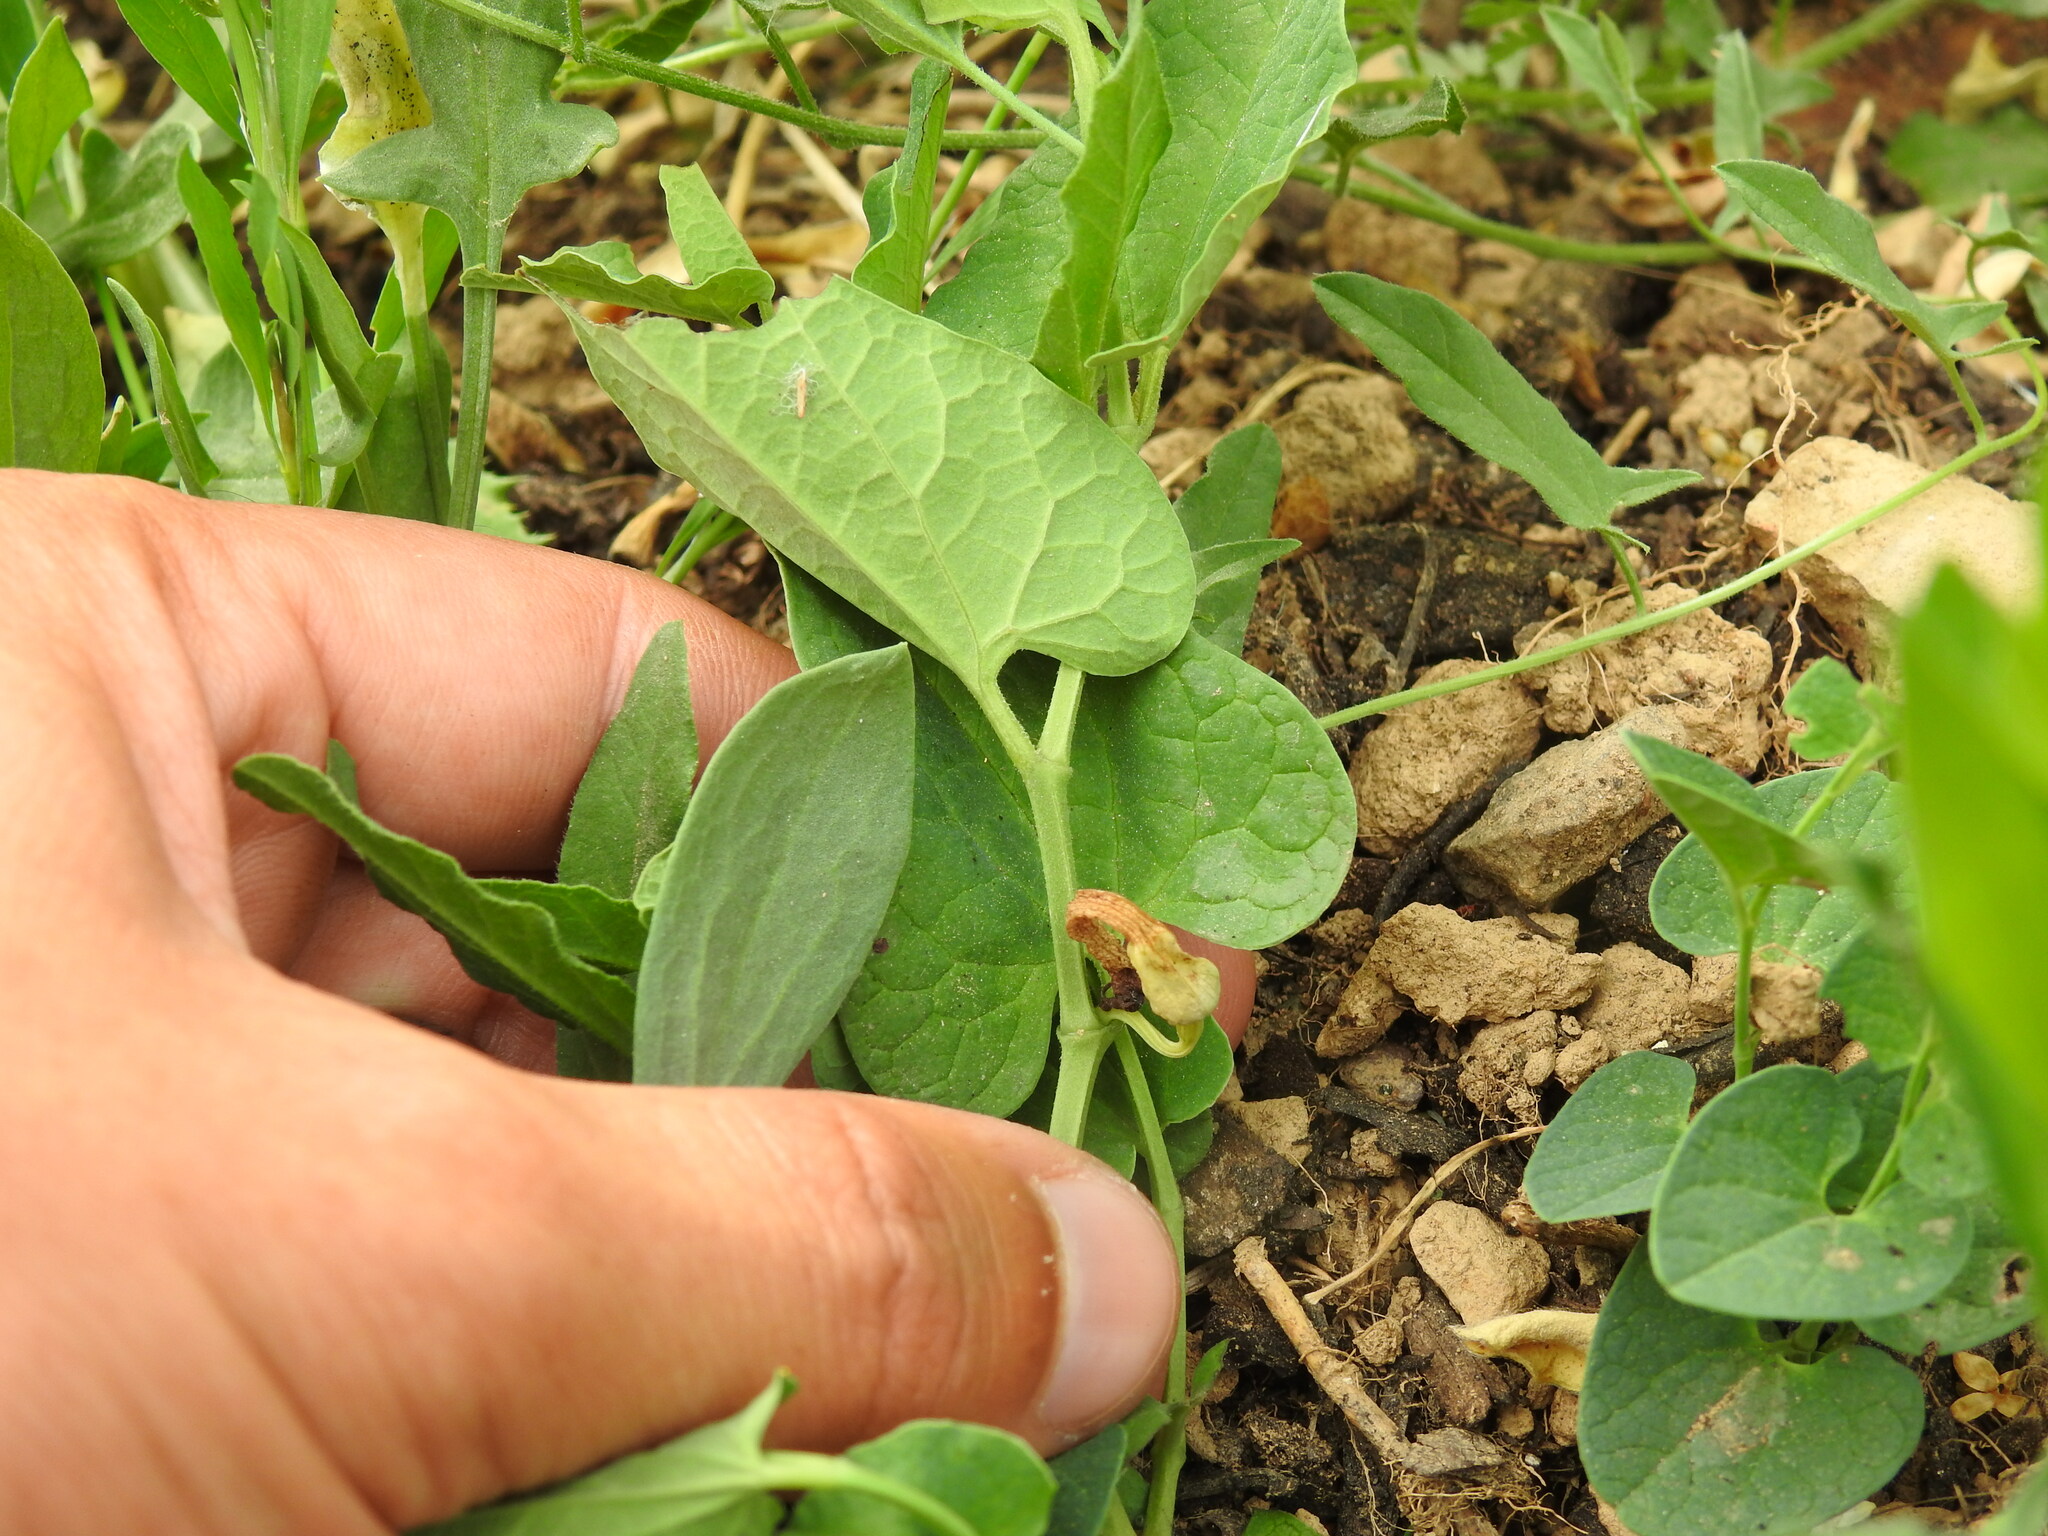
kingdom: Plantae
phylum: Tracheophyta
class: Magnoliopsida
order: Piperales
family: Aristolochiaceae
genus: Aristolochia
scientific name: Aristolochia paucinervis
